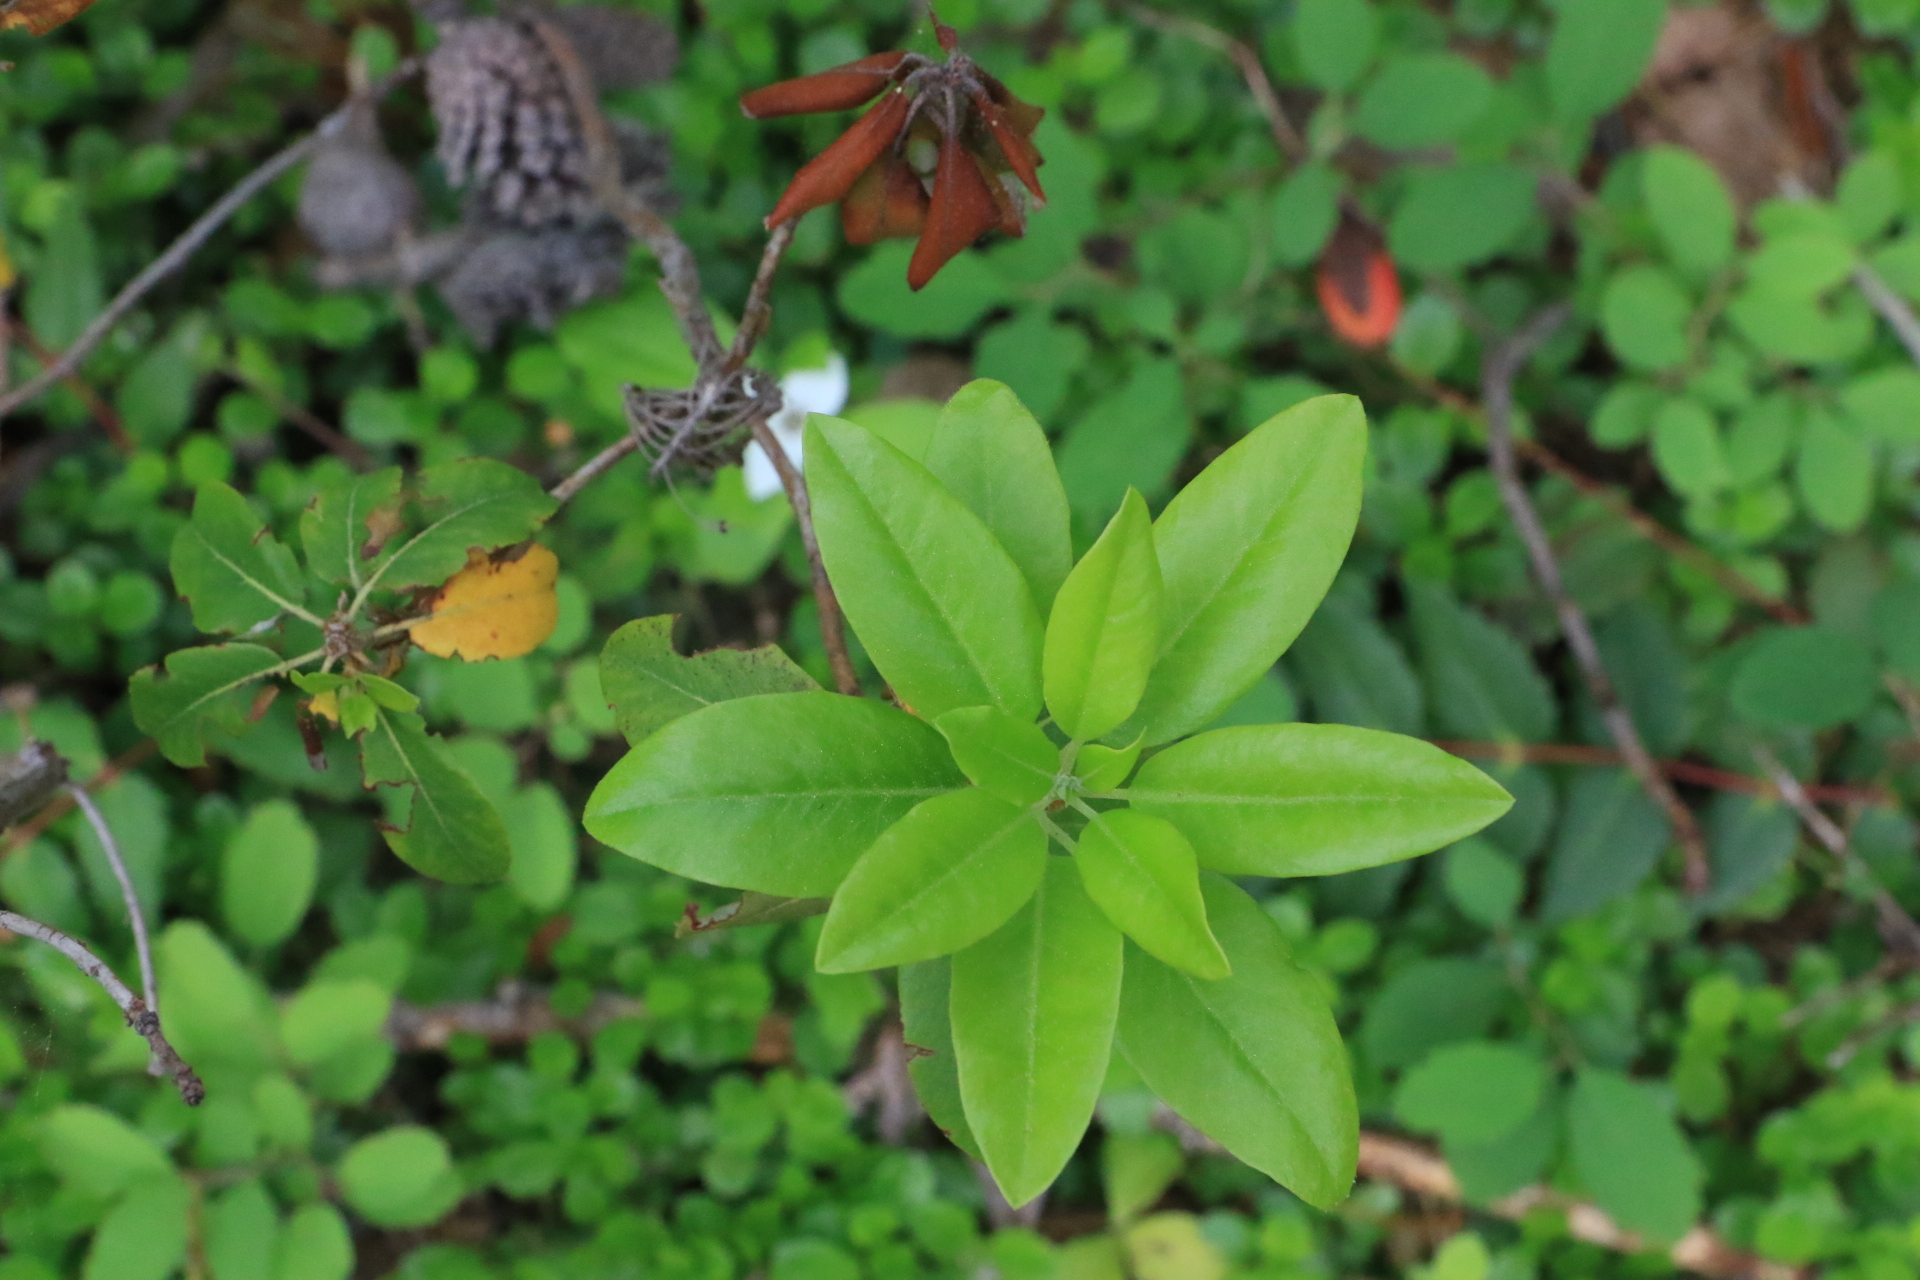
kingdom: Plantae
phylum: Tracheophyta
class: Magnoliopsida
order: Ericales
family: Ericaceae
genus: Rhododendron
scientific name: Rhododendron columbianum
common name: Western labrador tea
